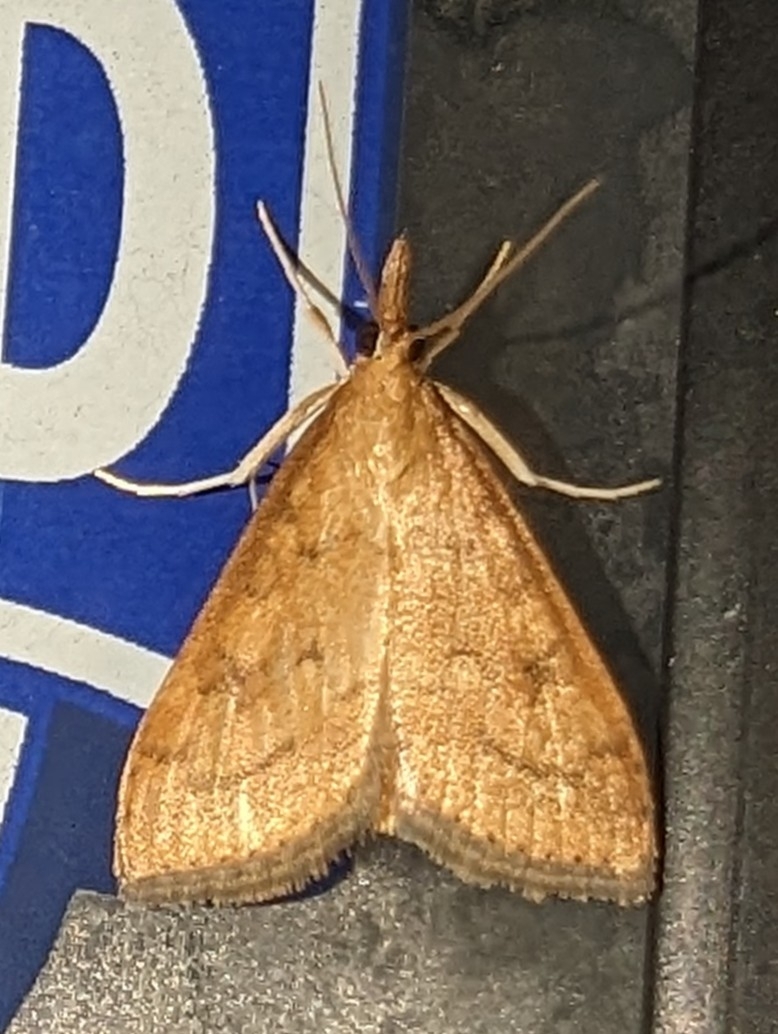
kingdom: Animalia
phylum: Arthropoda
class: Insecta
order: Lepidoptera
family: Crambidae
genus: Udea
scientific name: Udea rubigalis
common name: Celery leaftier moth
